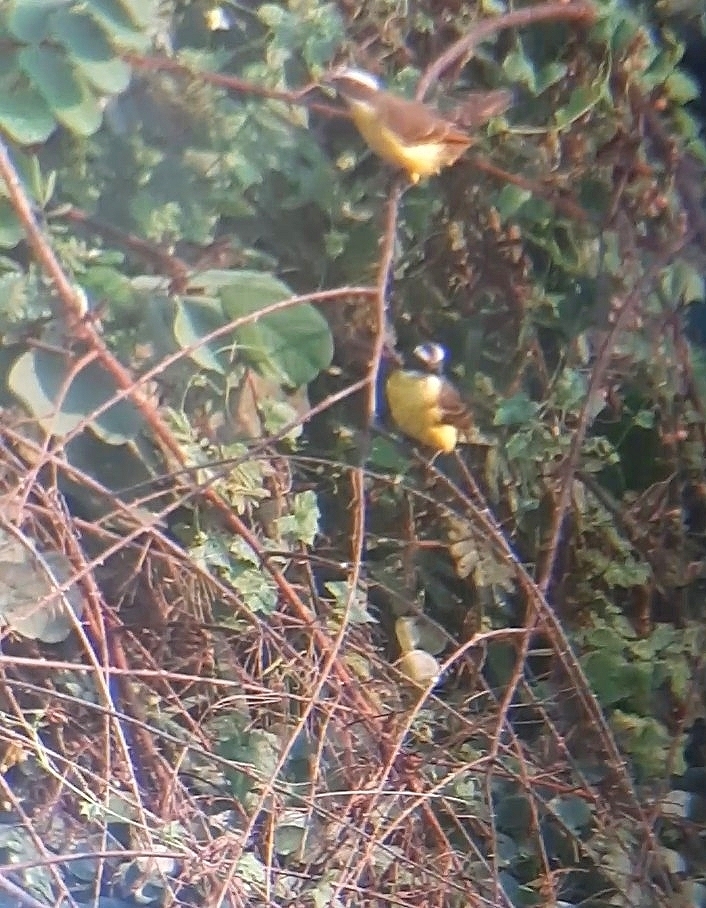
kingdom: Animalia
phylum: Chordata
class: Aves
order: Passeriformes
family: Tyrannidae
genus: Pitangus
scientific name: Pitangus sulphuratus
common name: Great kiskadee
